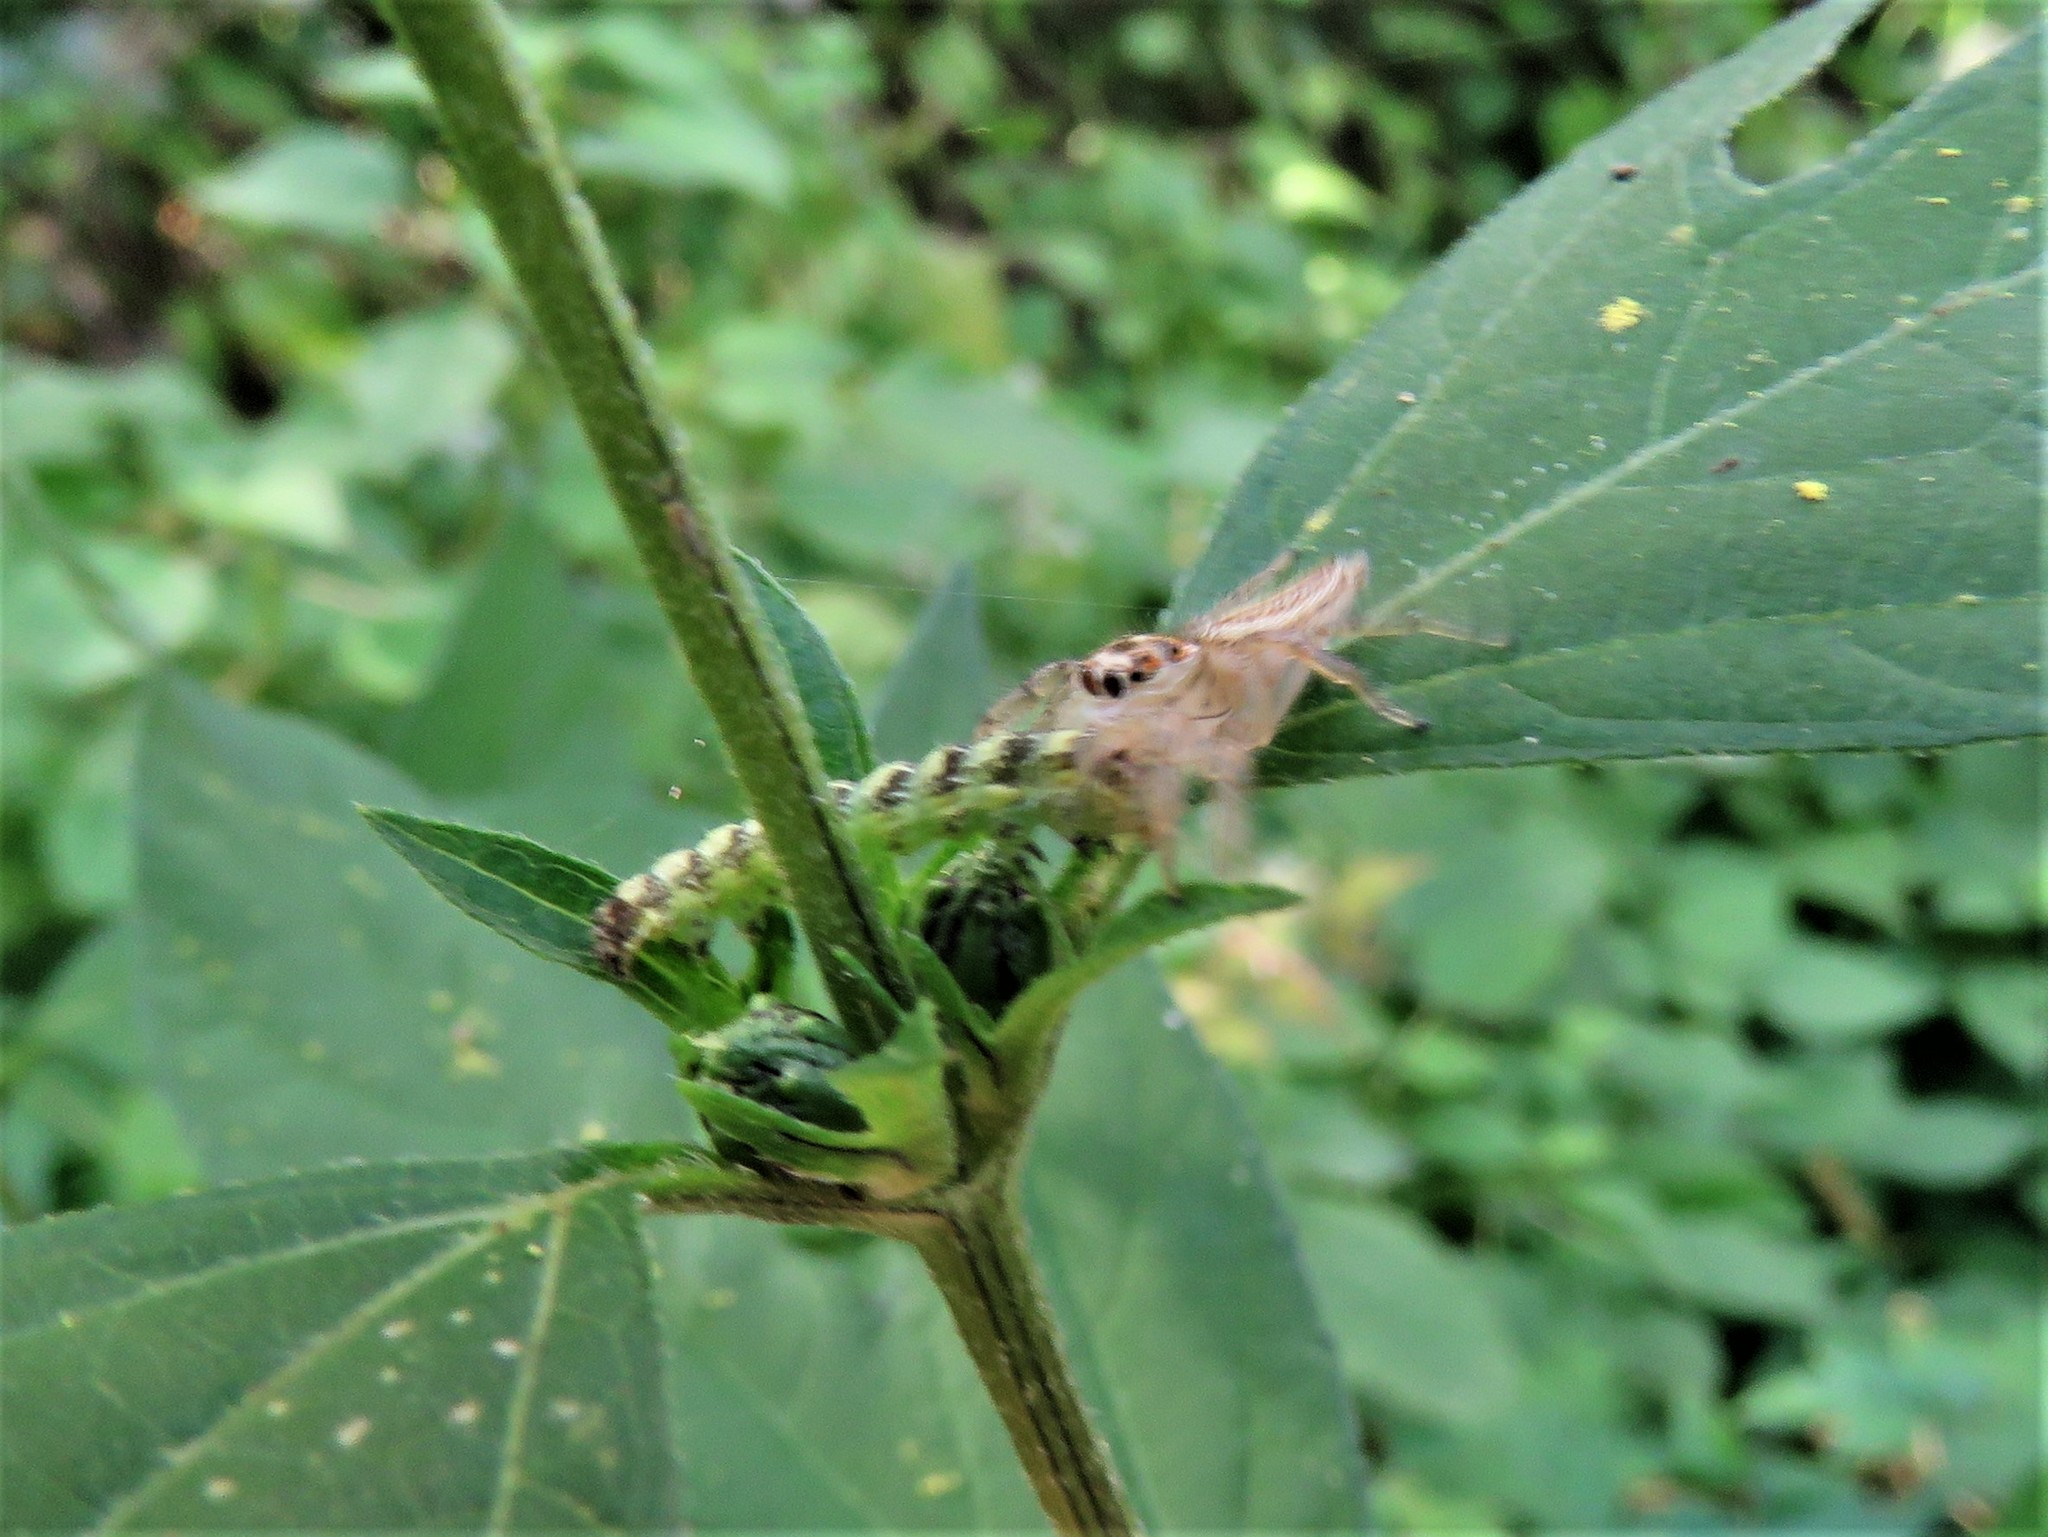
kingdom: Animalia
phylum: Arthropoda
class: Arachnida
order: Araneae
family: Salticidae
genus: Colonus
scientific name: Colonus sylvanus
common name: Jumping spiders
